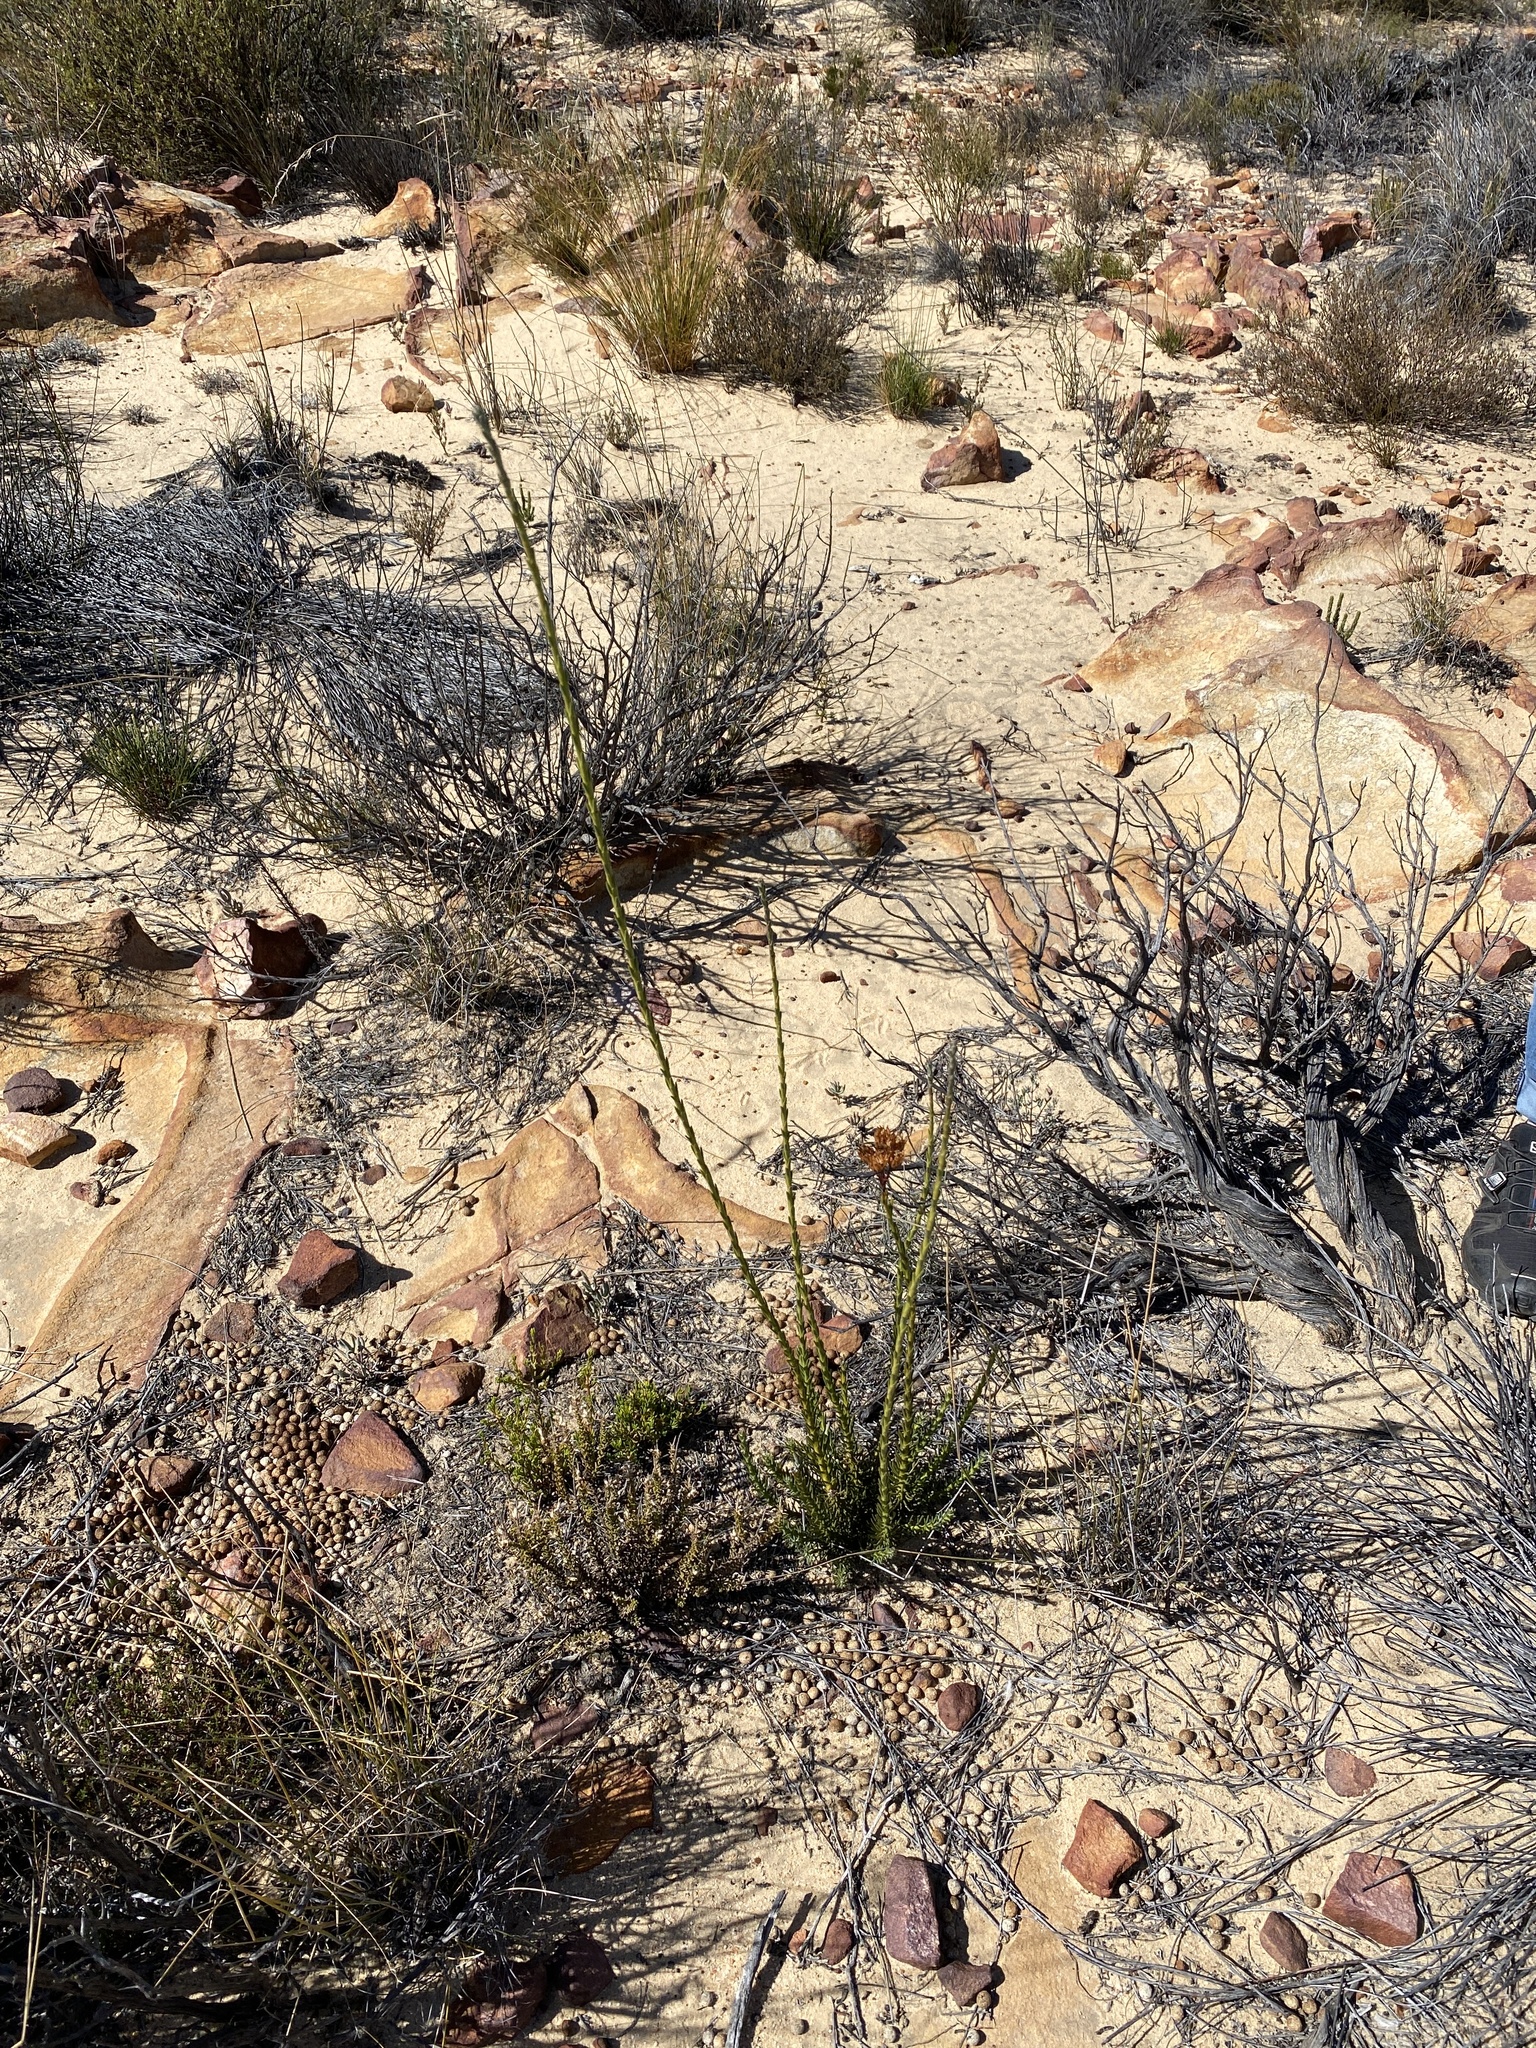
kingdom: Plantae
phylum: Tracheophyta
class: Magnoliopsida
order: Asterales
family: Asteraceae
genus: Athanasia
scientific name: Athanasia linifolia
